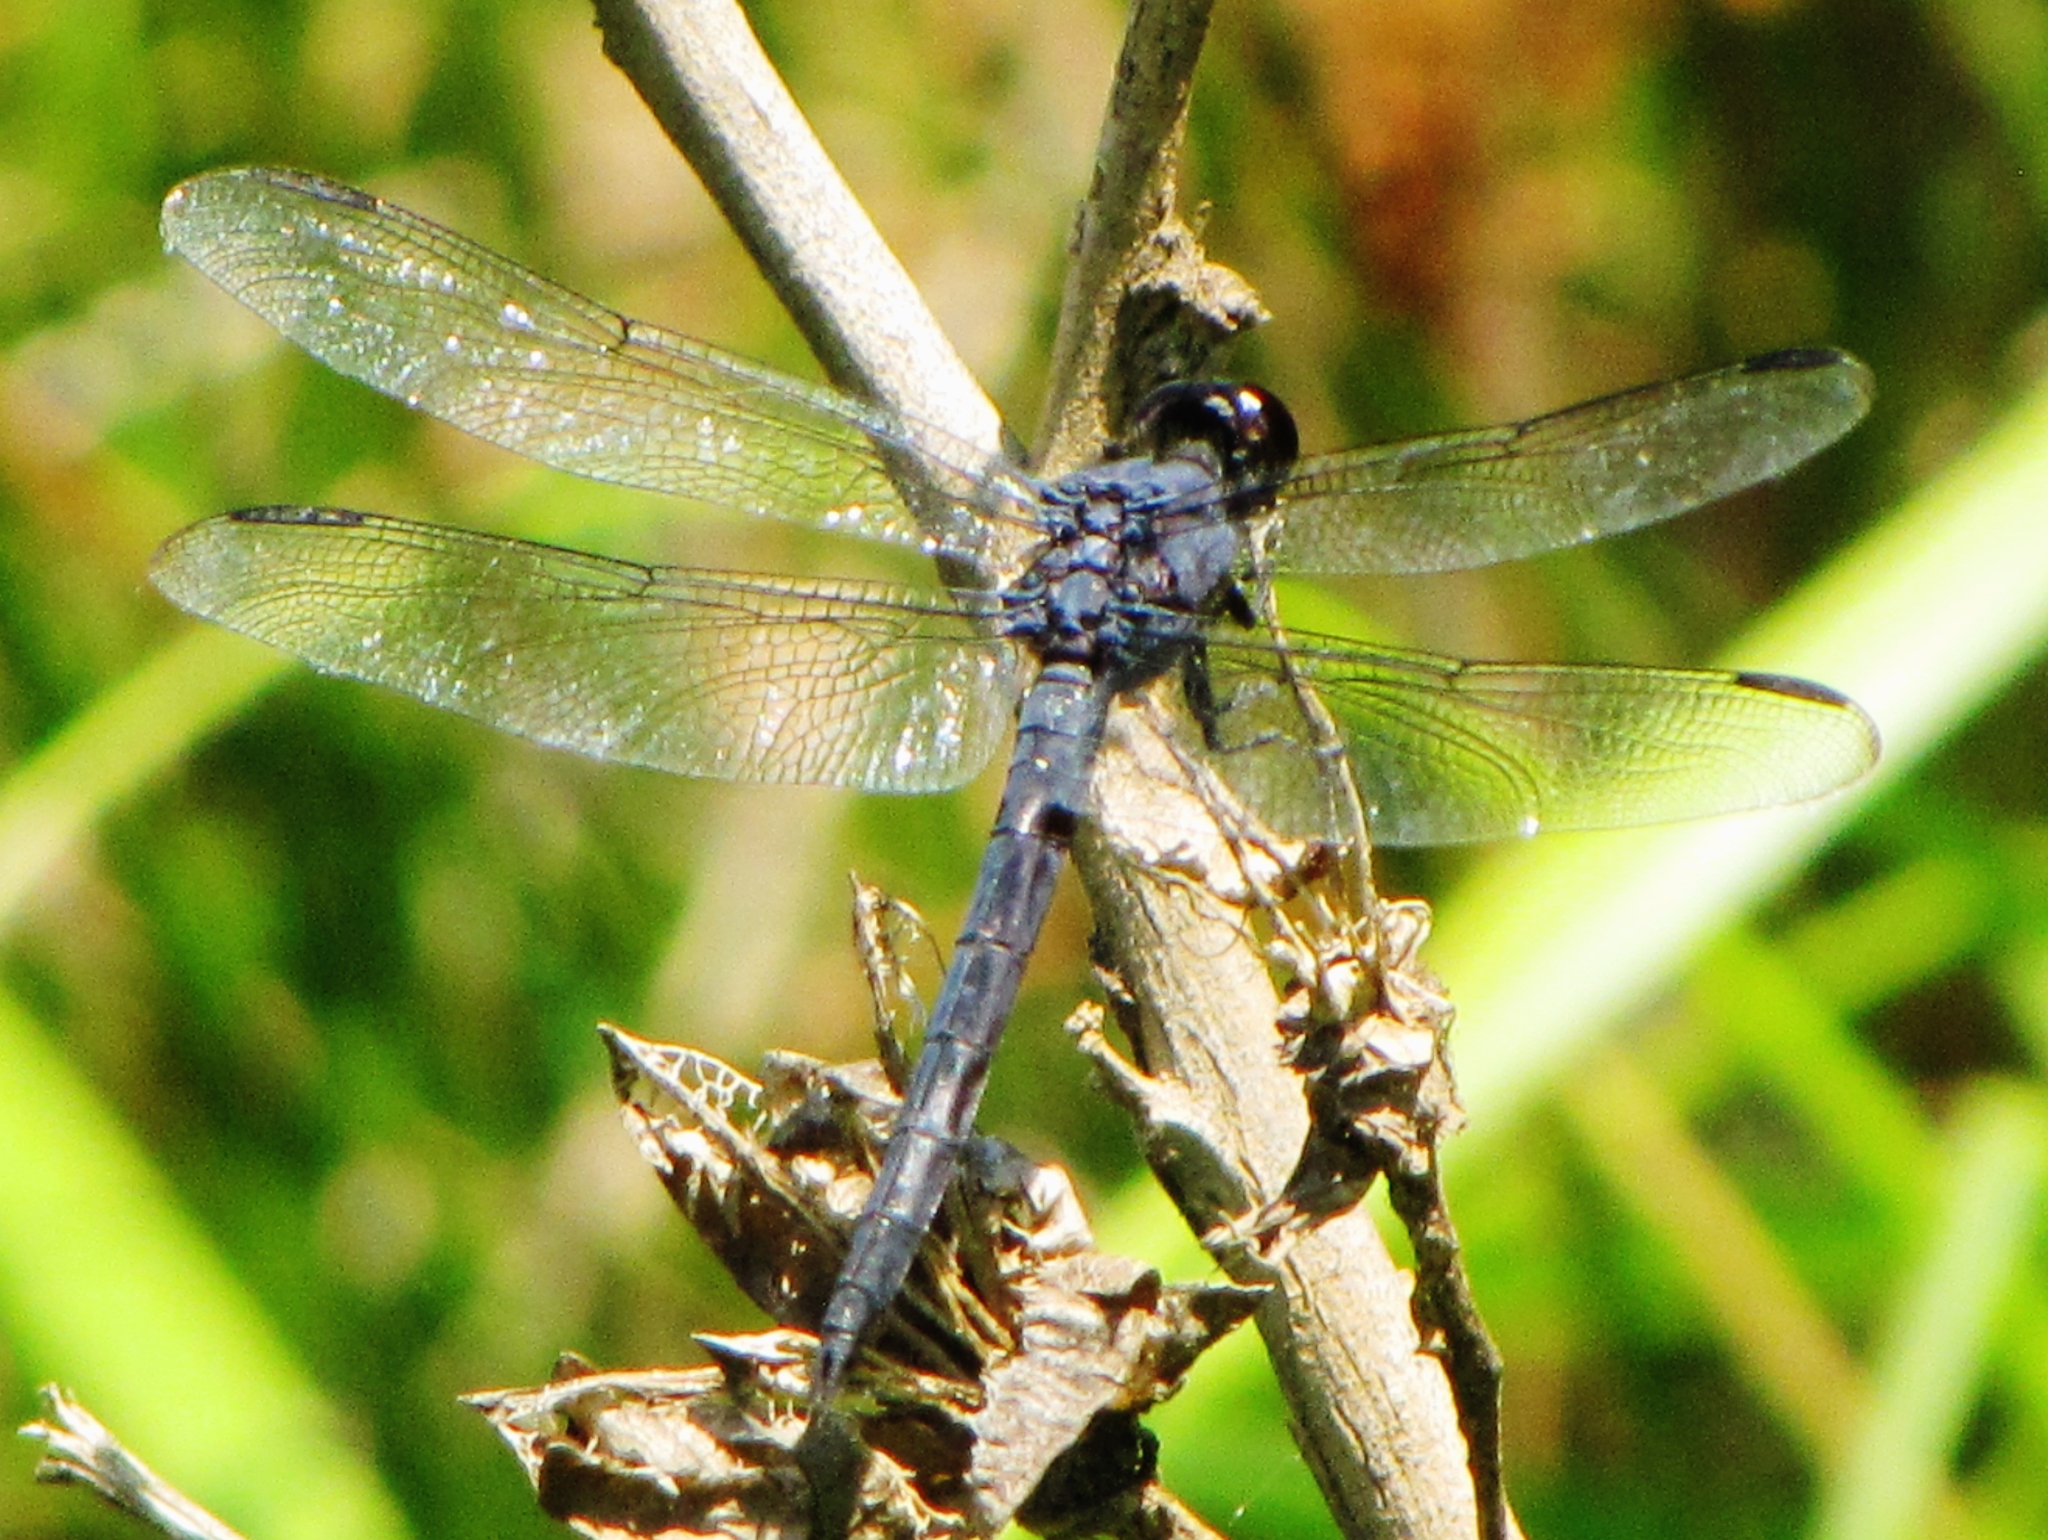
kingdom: Animalia
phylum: Arthropoda
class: Insecta
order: Odonata
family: Libellulidae
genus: Libellula
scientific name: Libellula incesta
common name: Slaty skimmer
